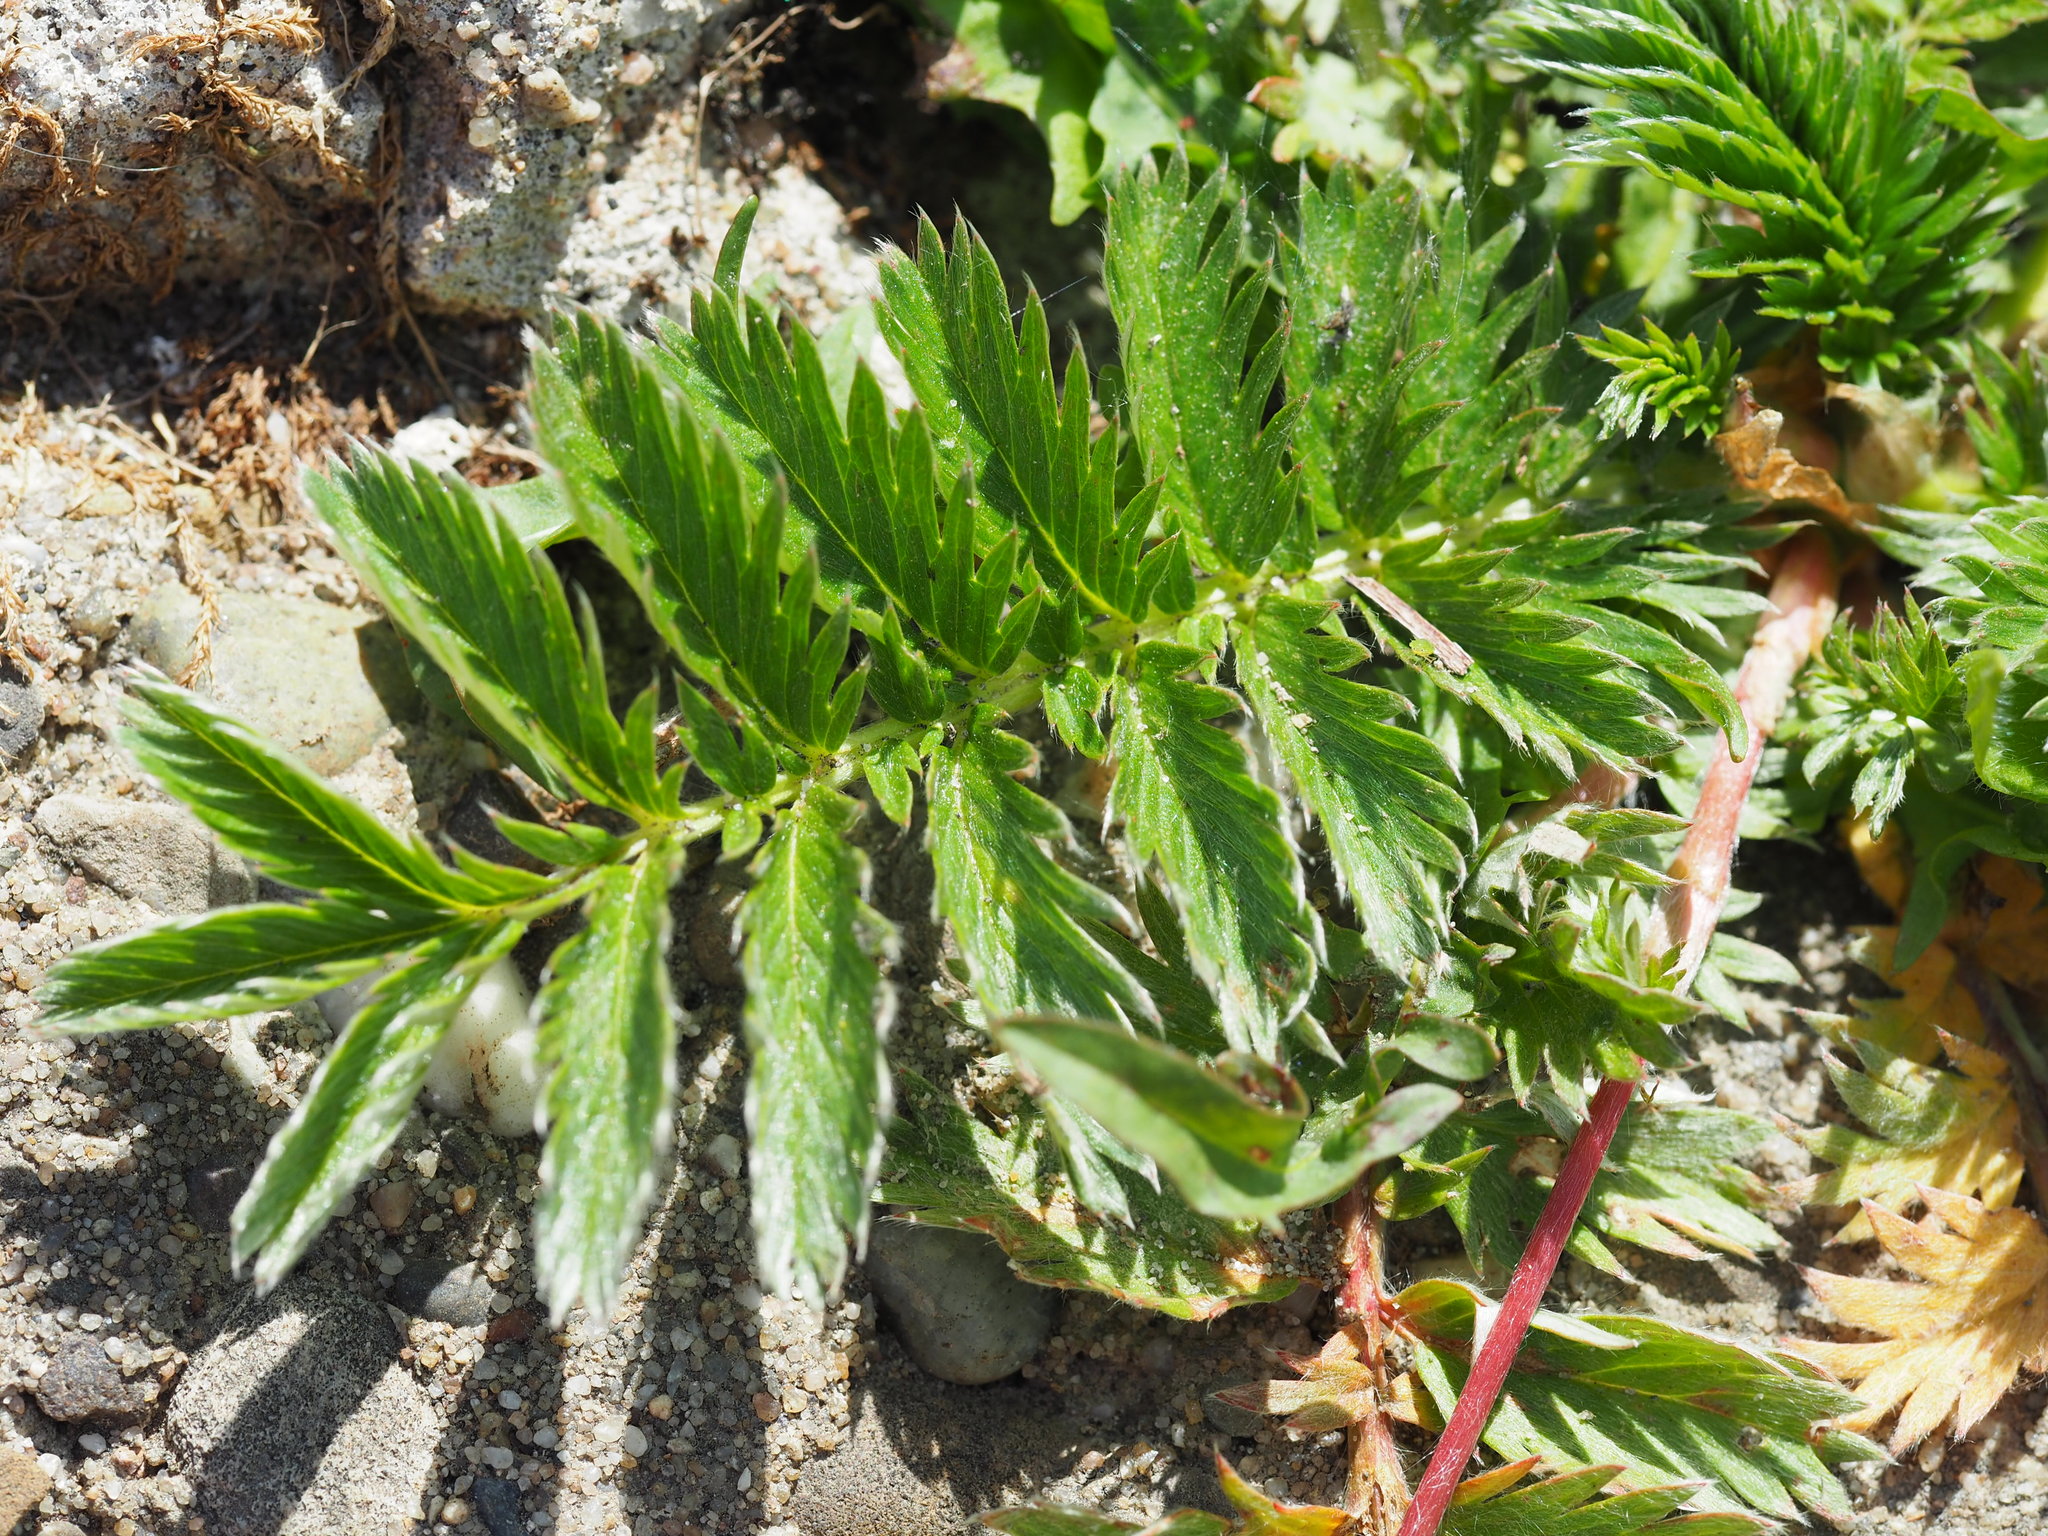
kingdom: Plantae
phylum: Tracheophyta
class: Magnoliopsida
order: Rosales
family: Rosaceae
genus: Argentina
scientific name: Argentina anserina
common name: Common silverweed
